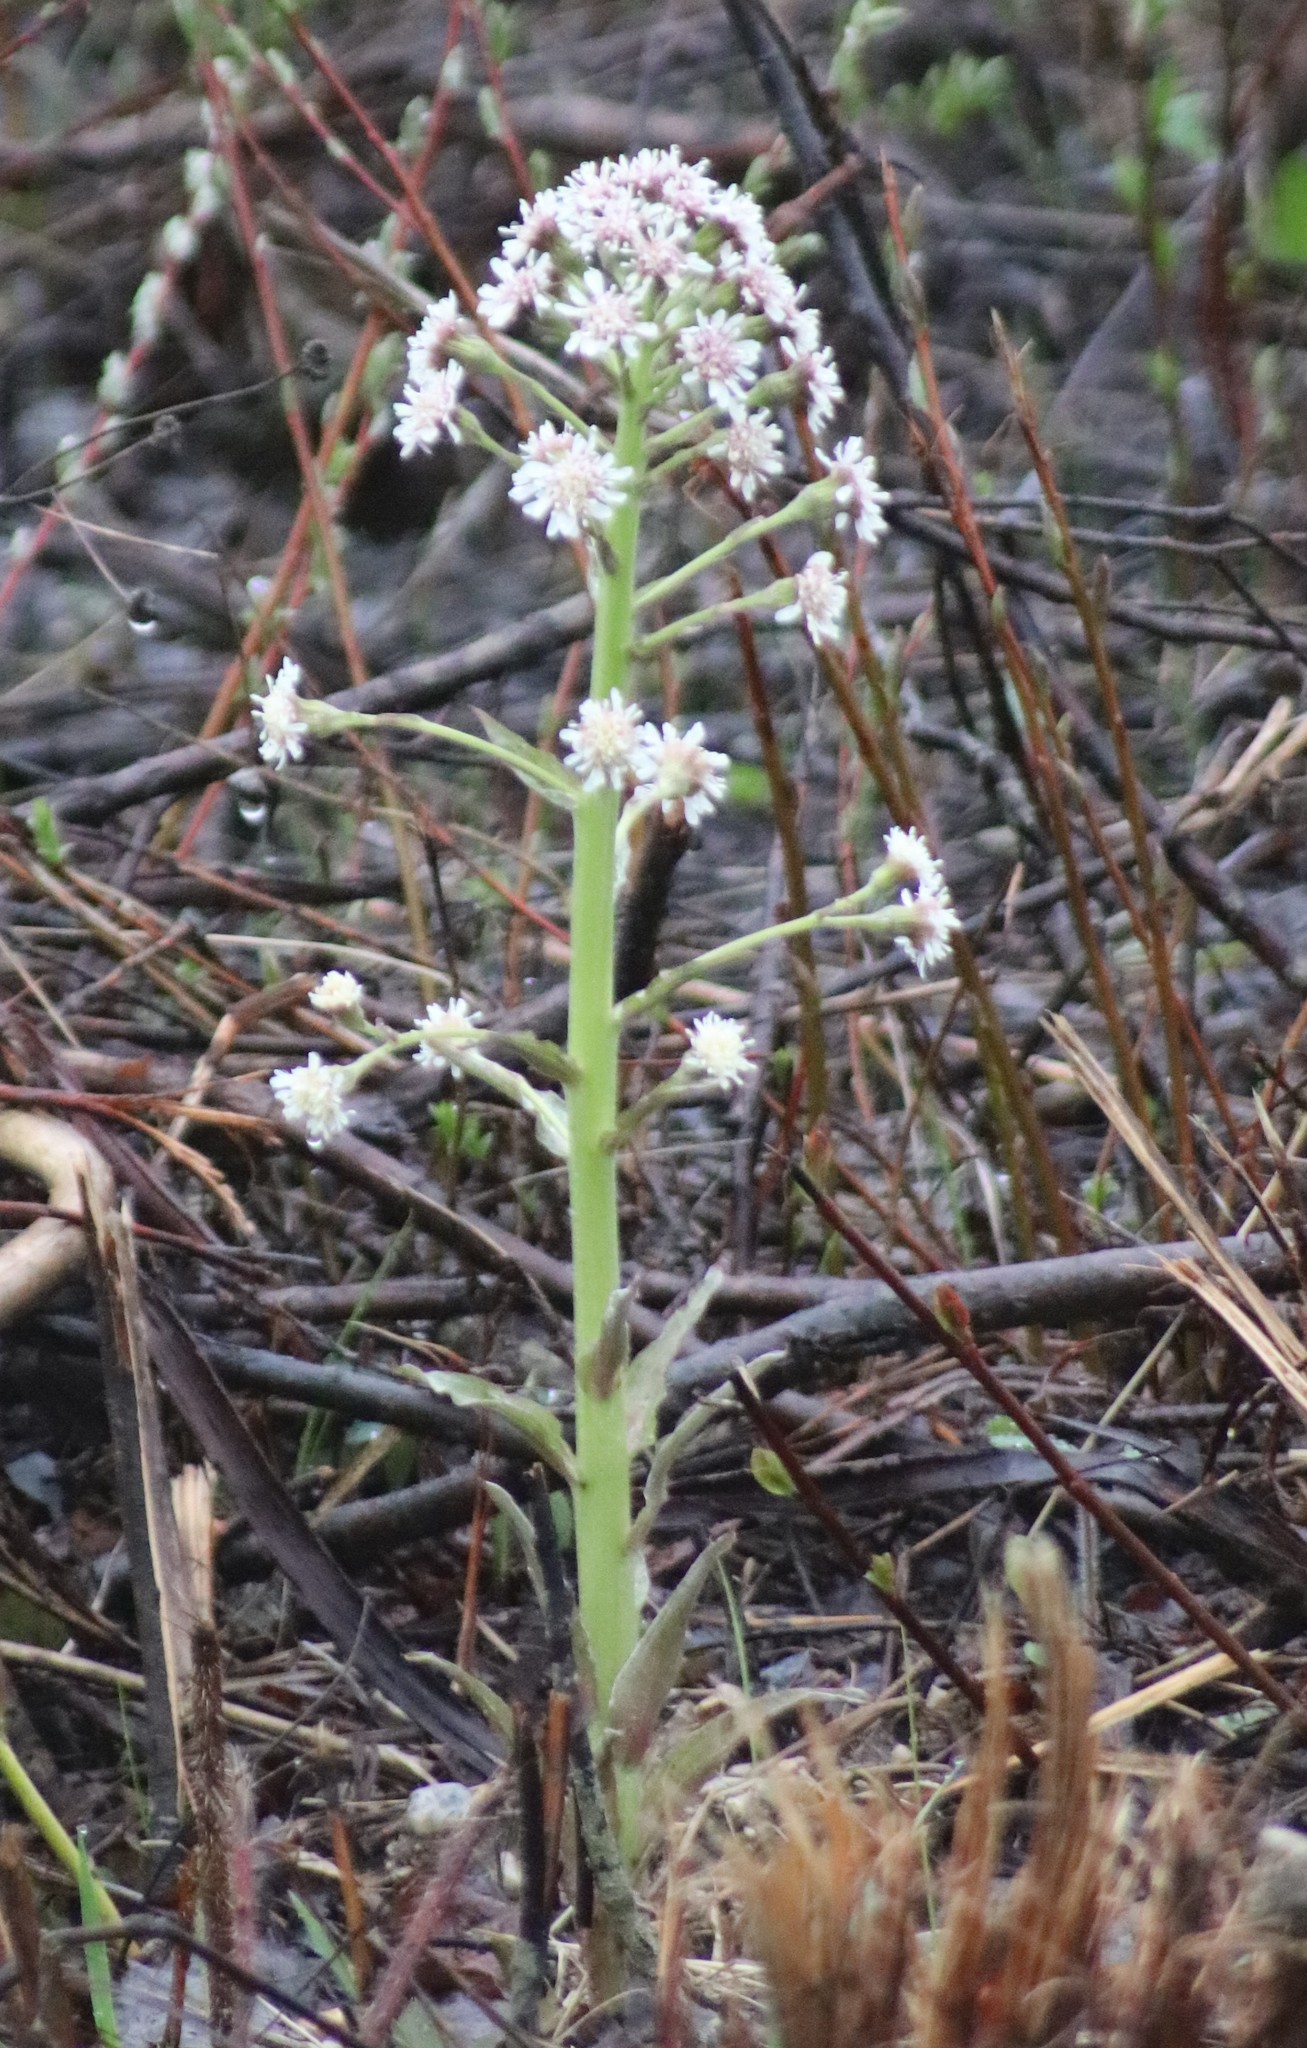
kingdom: Plantae
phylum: Tracheophyta
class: Magnoliopsida
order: Asterales
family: Asteraceae
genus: Petasites
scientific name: Petasites frigidus
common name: Arctic butterbur
